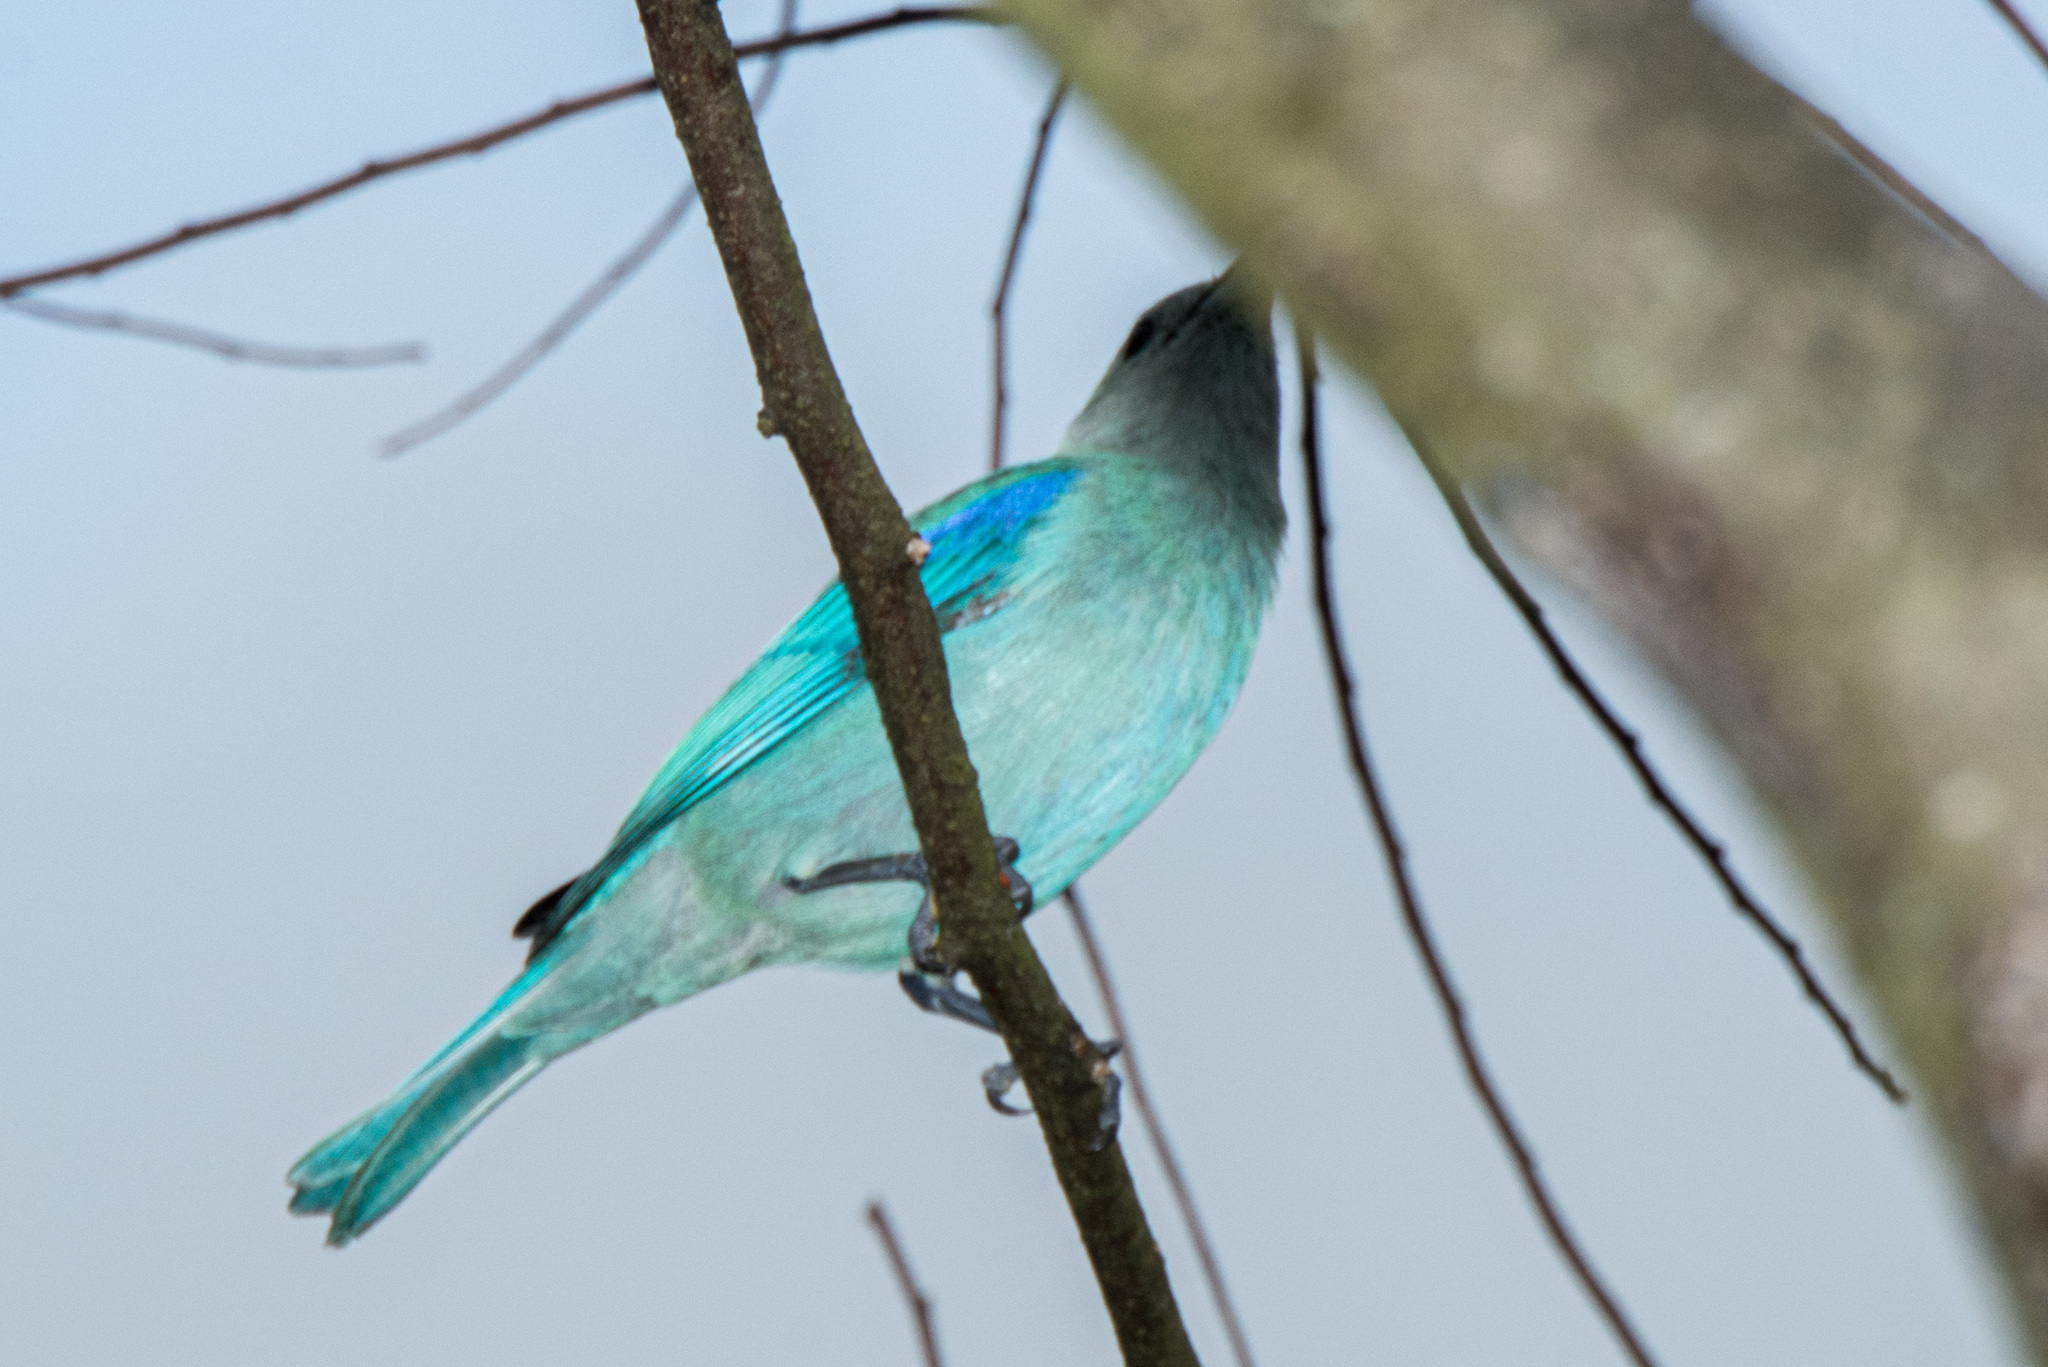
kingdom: Animalia
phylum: Chordata
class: Aves
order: Passeriformes
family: Thraupidae
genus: Thraupis
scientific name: Thraupis episcopus
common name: Blue-grey tanager
